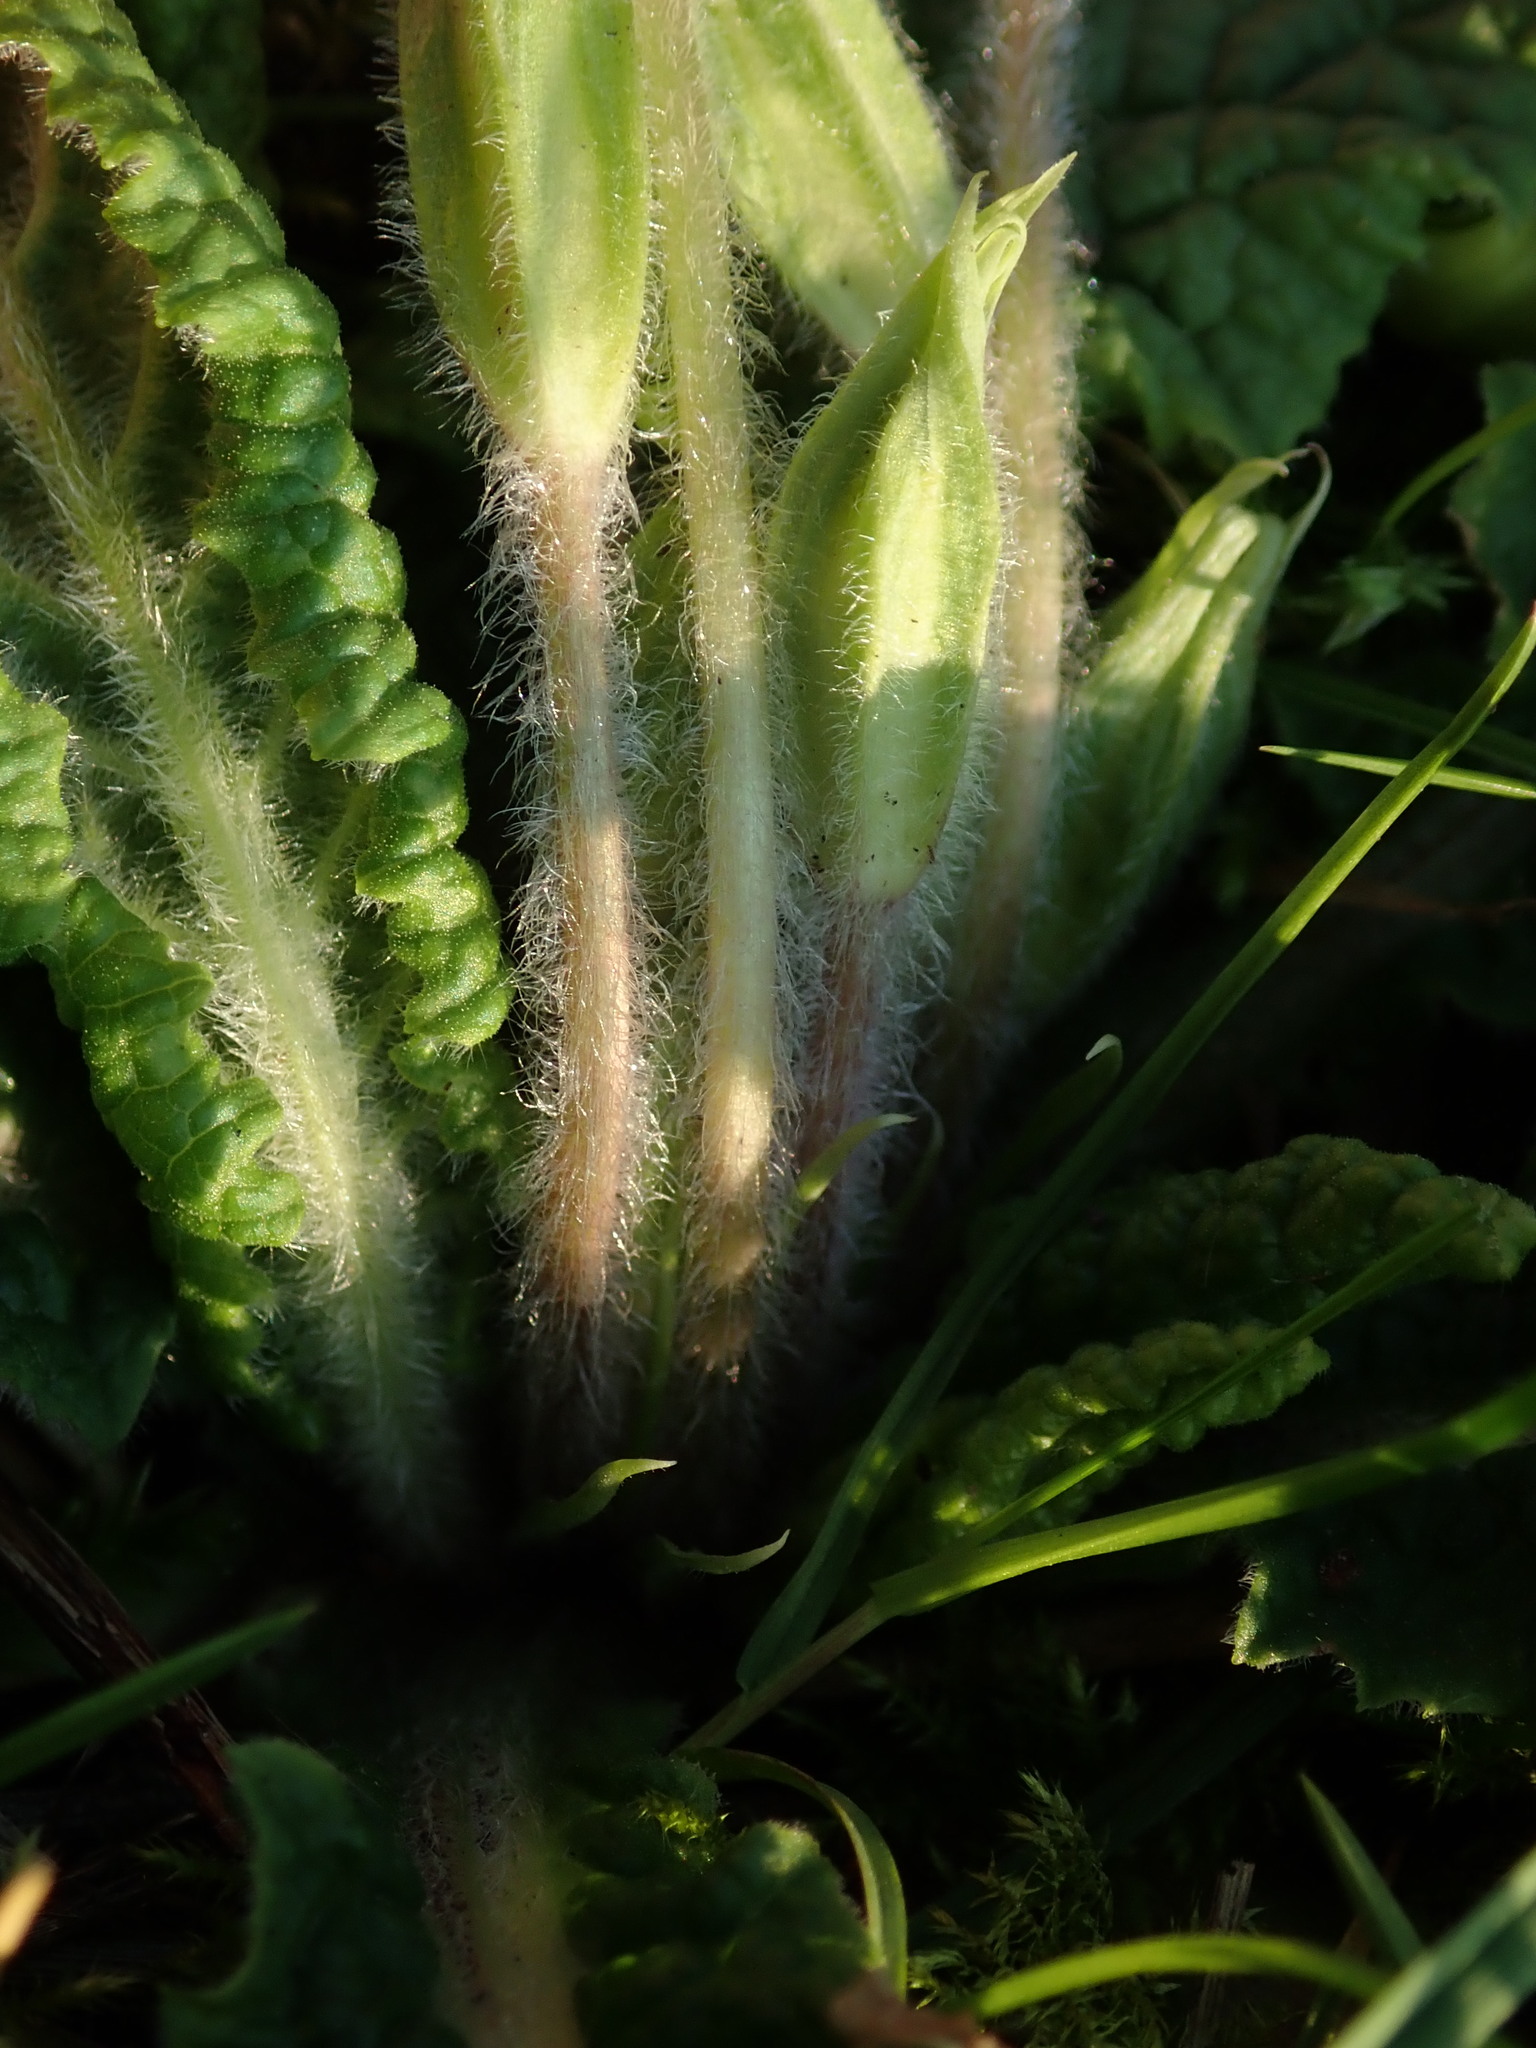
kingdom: Plantae
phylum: Tracheophyta
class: Magnoliopsida
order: Ericales
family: Primulaceae
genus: Primula
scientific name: Primula vulgaris
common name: Primrose
